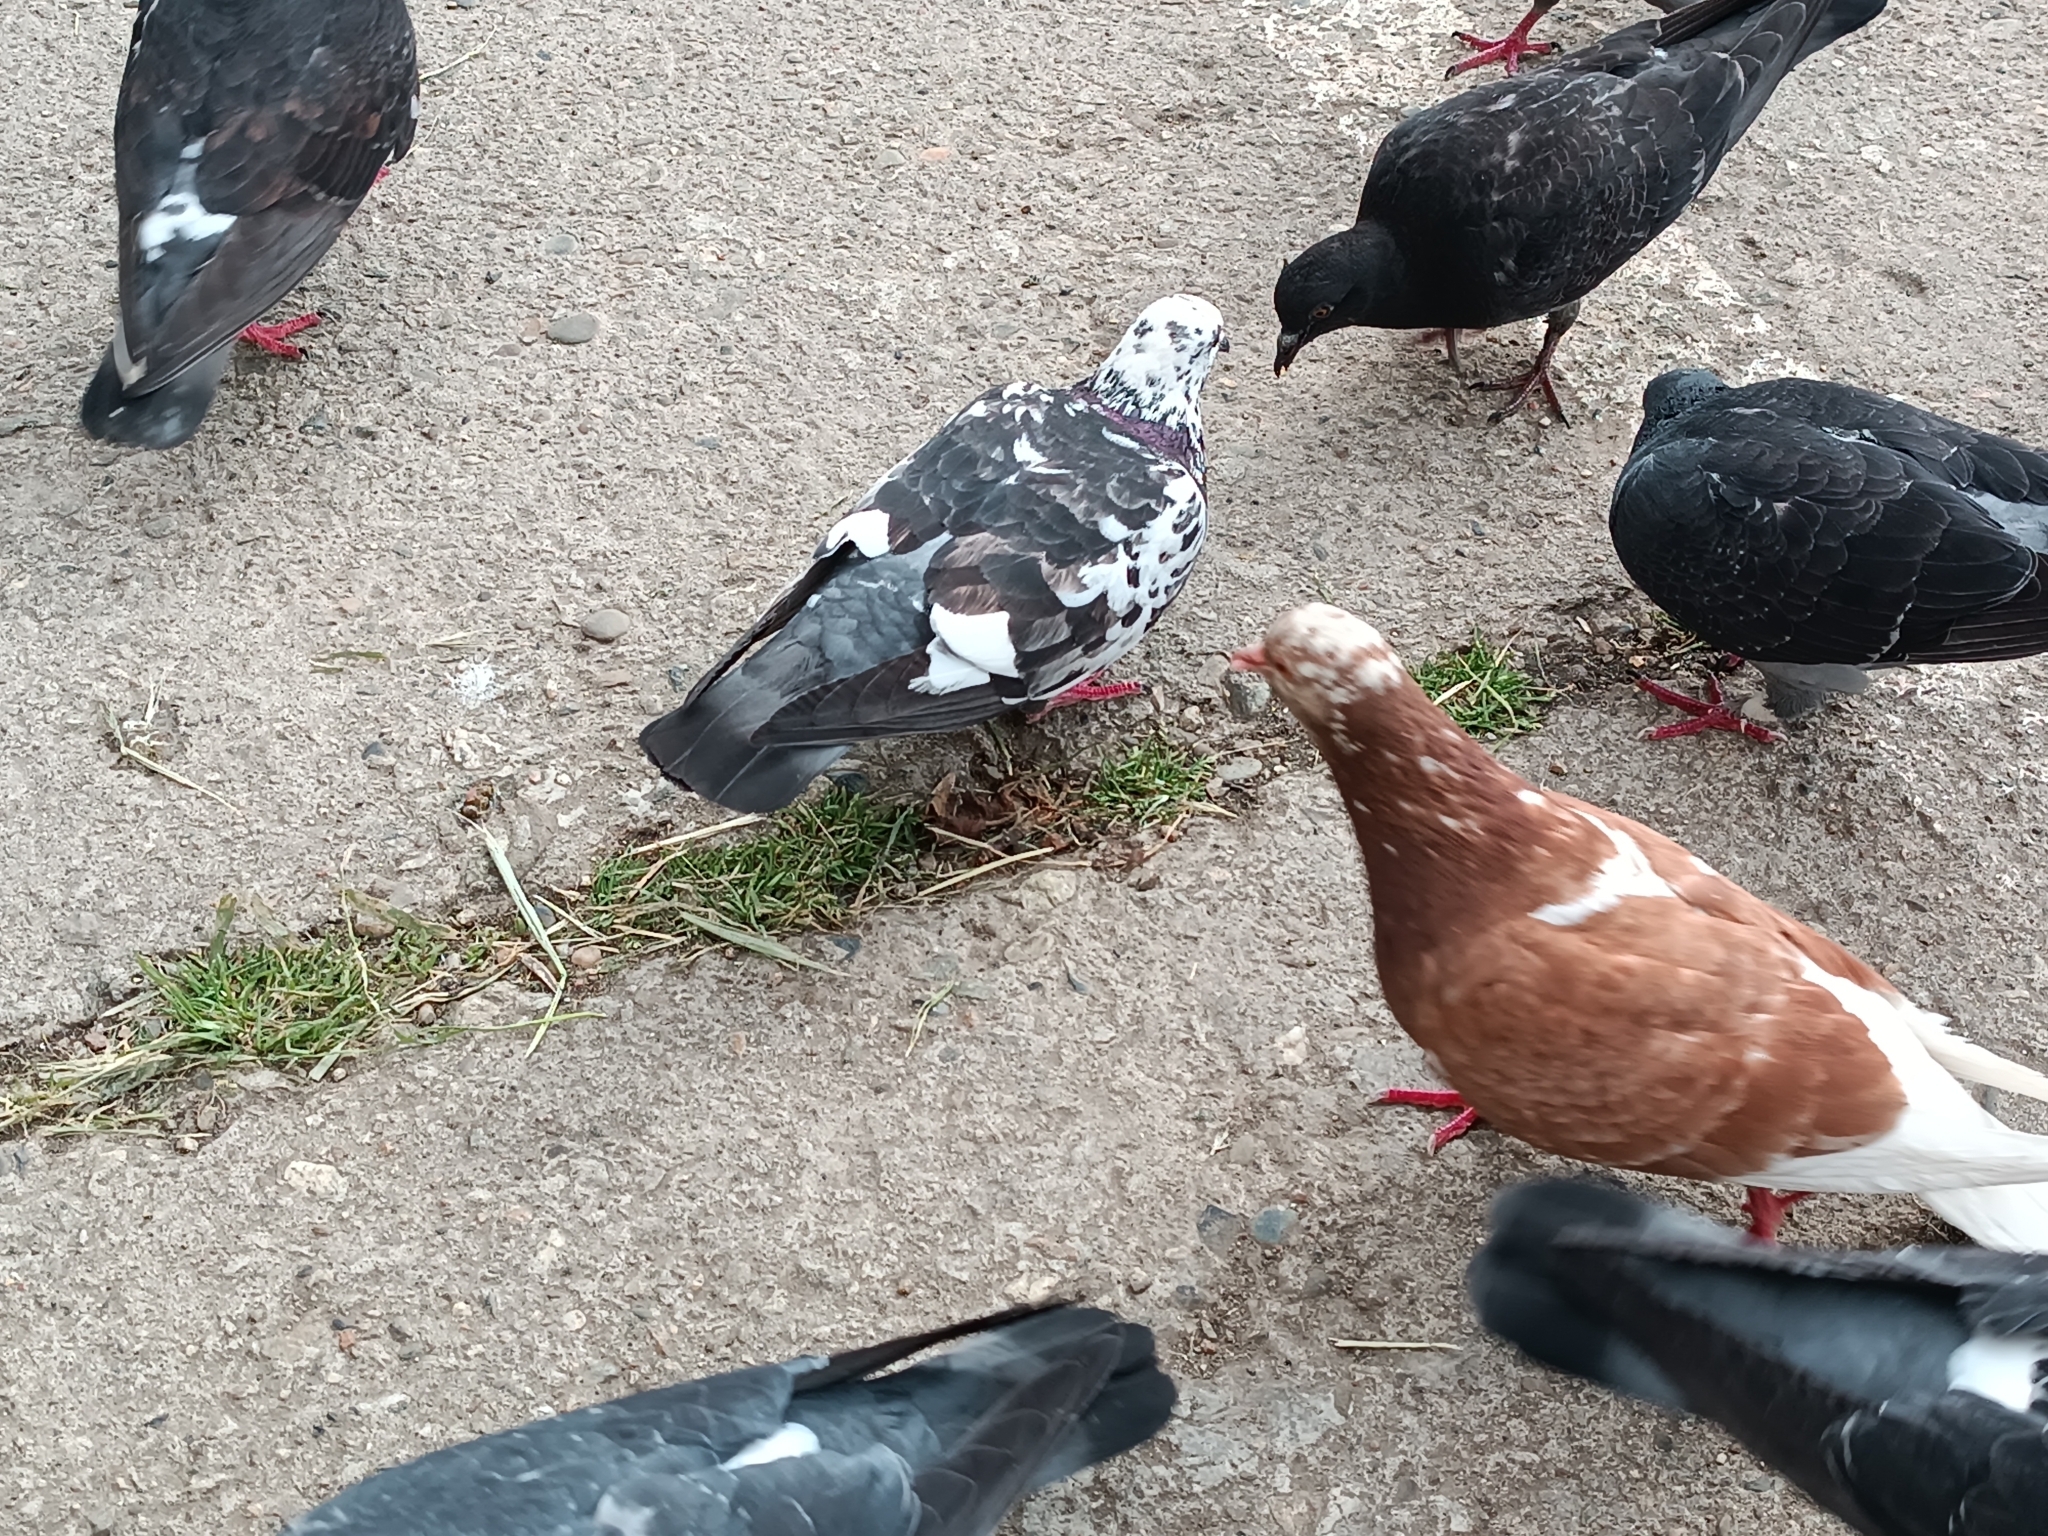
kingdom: Animalia
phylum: Chordata
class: Aves
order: Columbiformes
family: Columbidae
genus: Columba
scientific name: Columba livia
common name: Rock pigeon
